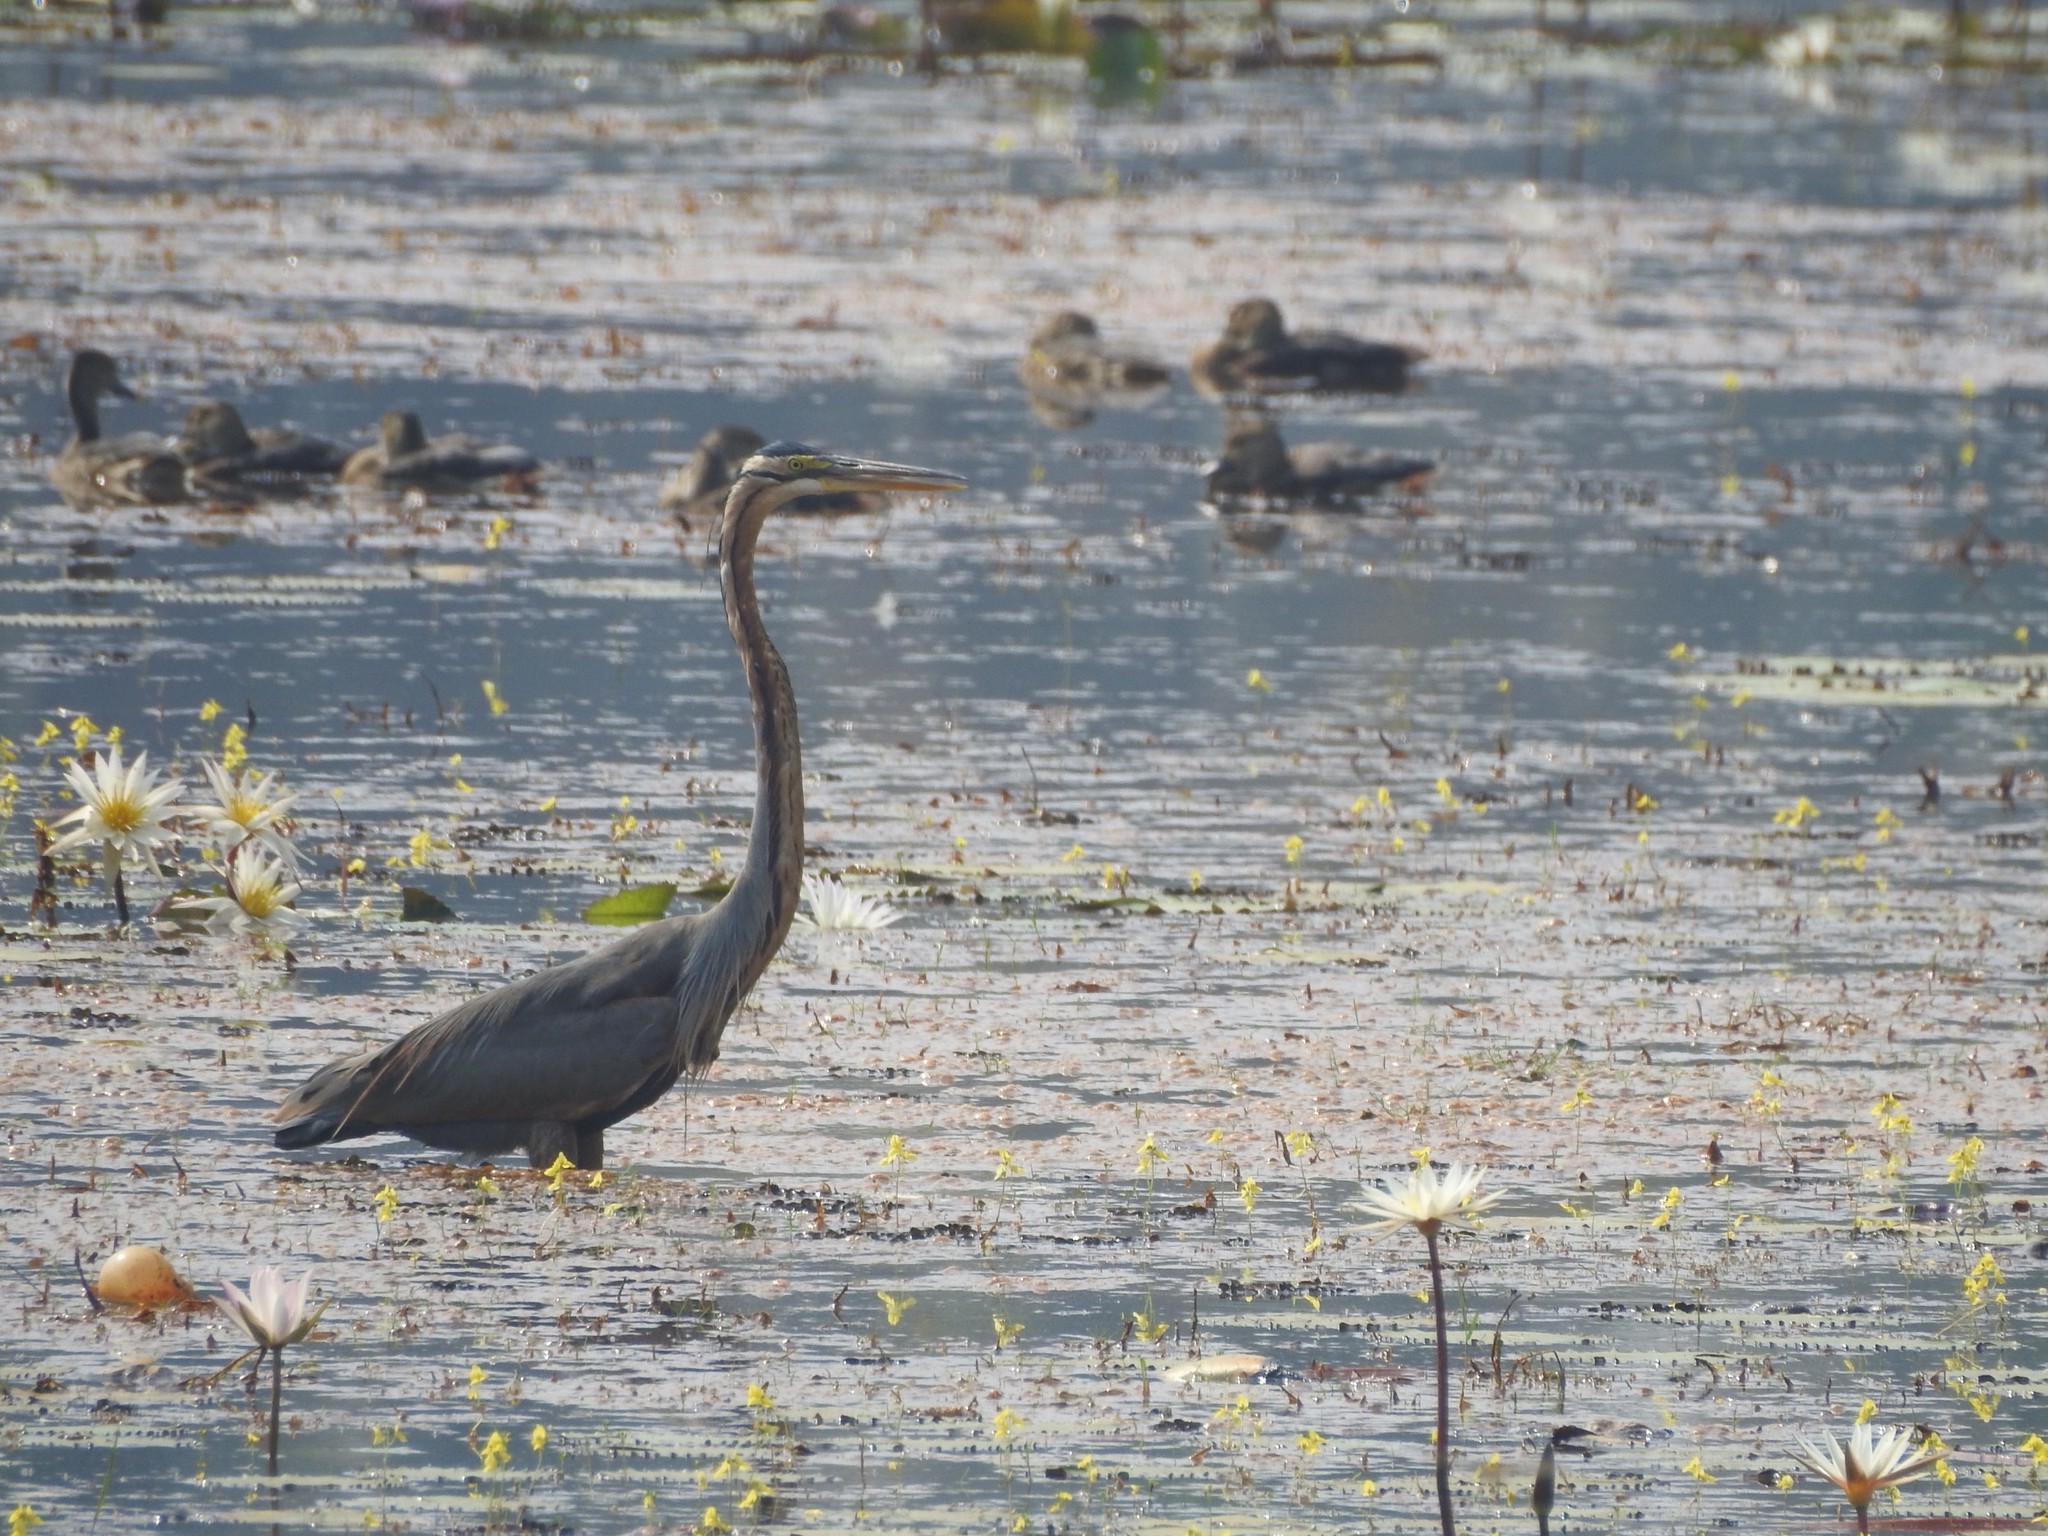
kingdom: Animalia
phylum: Chordata
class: Aves
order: Pelecaniformes
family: Ardeidae
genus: Ardea
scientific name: Ardea purpurea
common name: Purple heron
